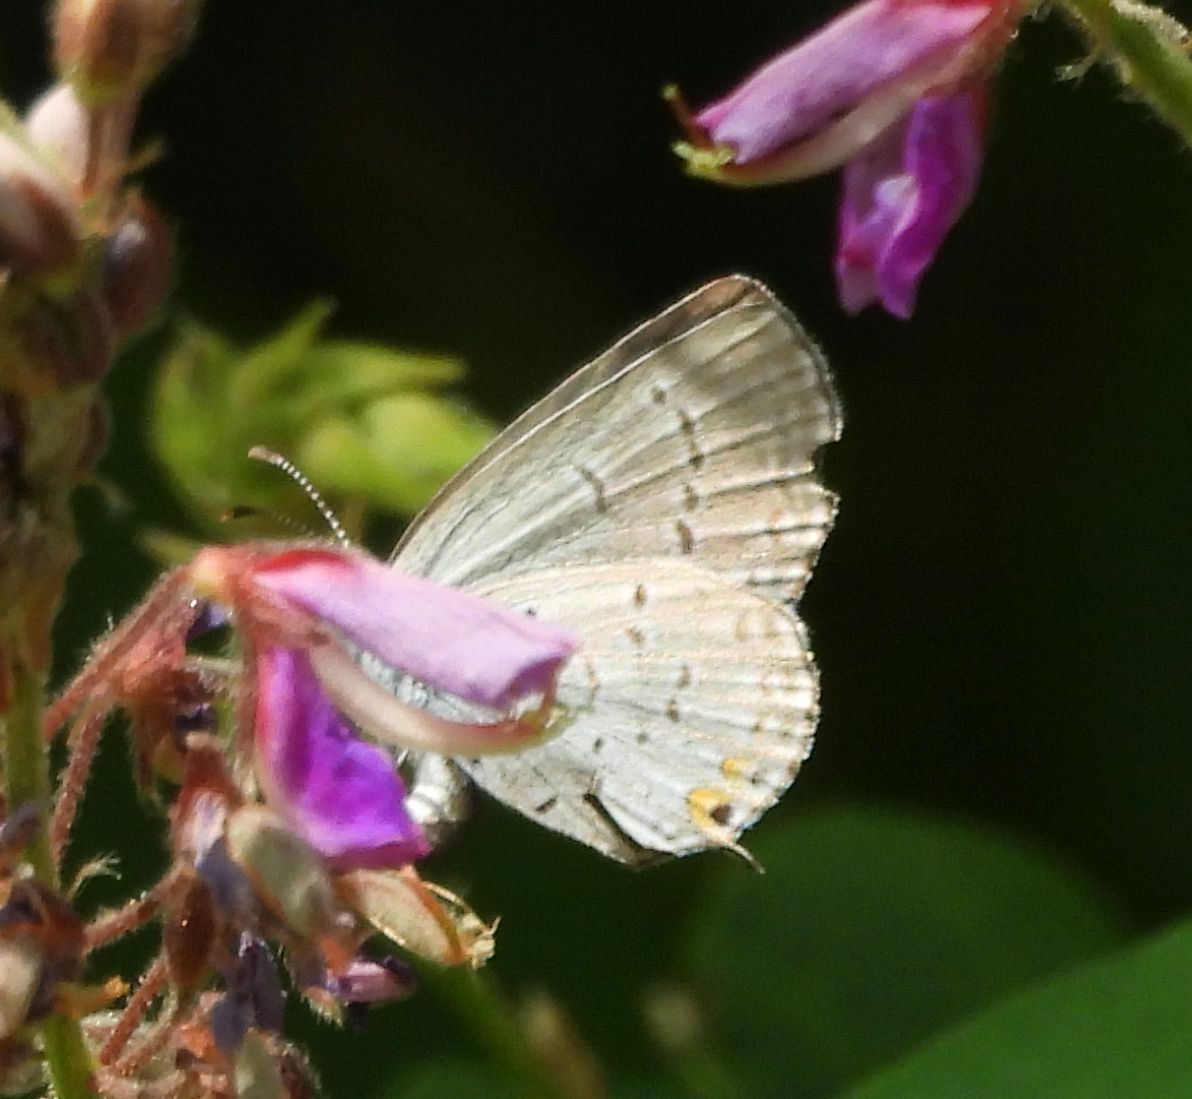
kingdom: Animalia
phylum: Arthropoda
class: Insecta
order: Lepidoptera
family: Lycaenidae
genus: Elkalyce
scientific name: Elkalyce comyntas
